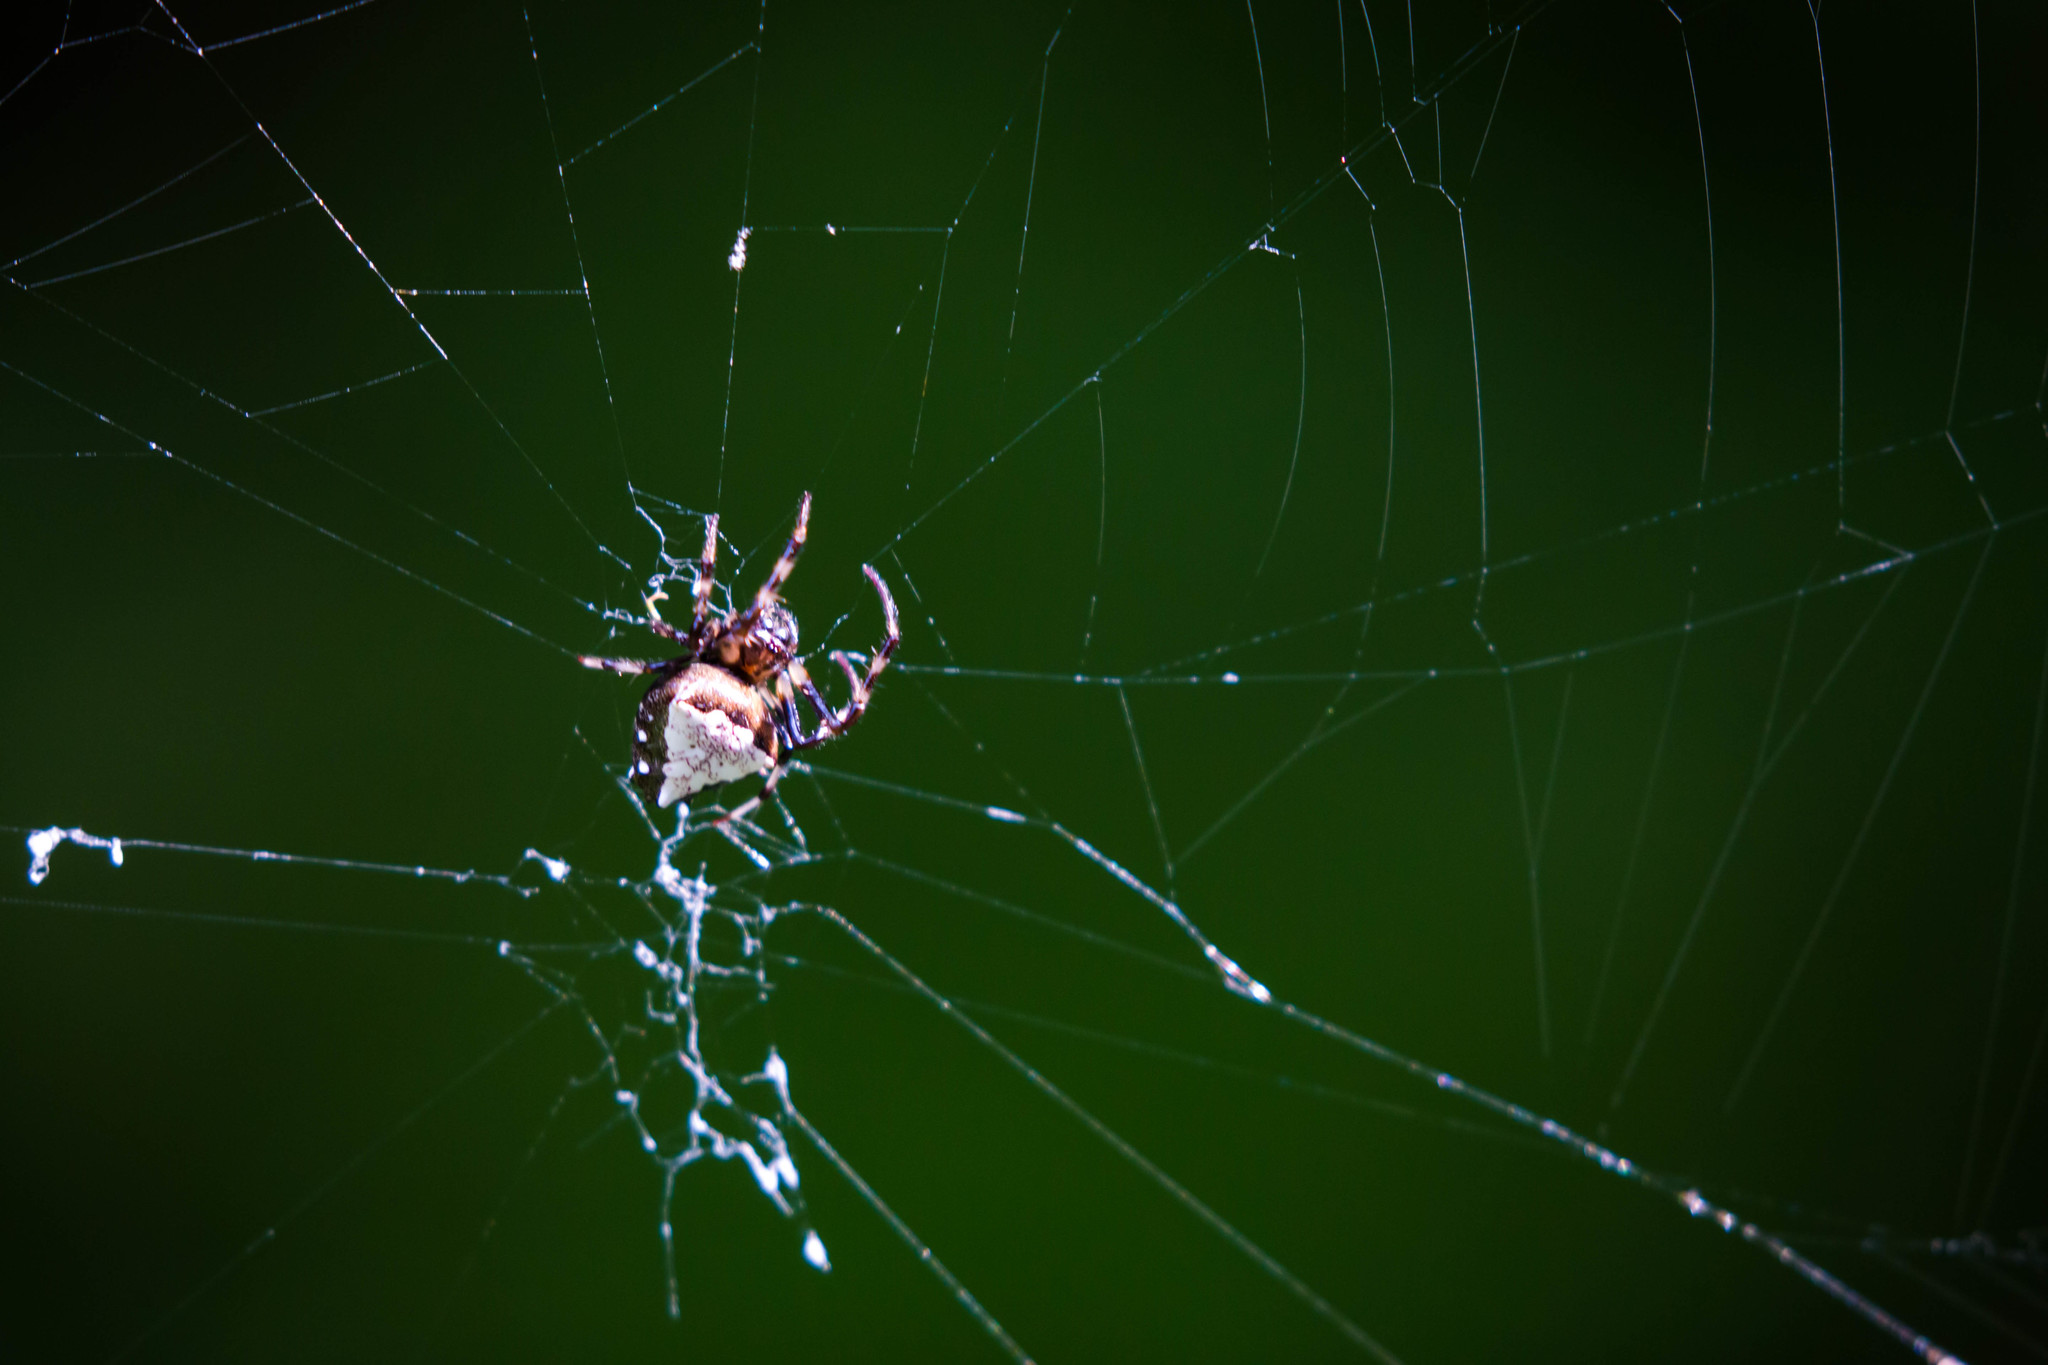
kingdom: Animalia
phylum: Arthropoda
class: Arachnida
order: Araneae
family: Araneidae
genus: Verrucosa
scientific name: Verrucosa arenata
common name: Orb weavers
